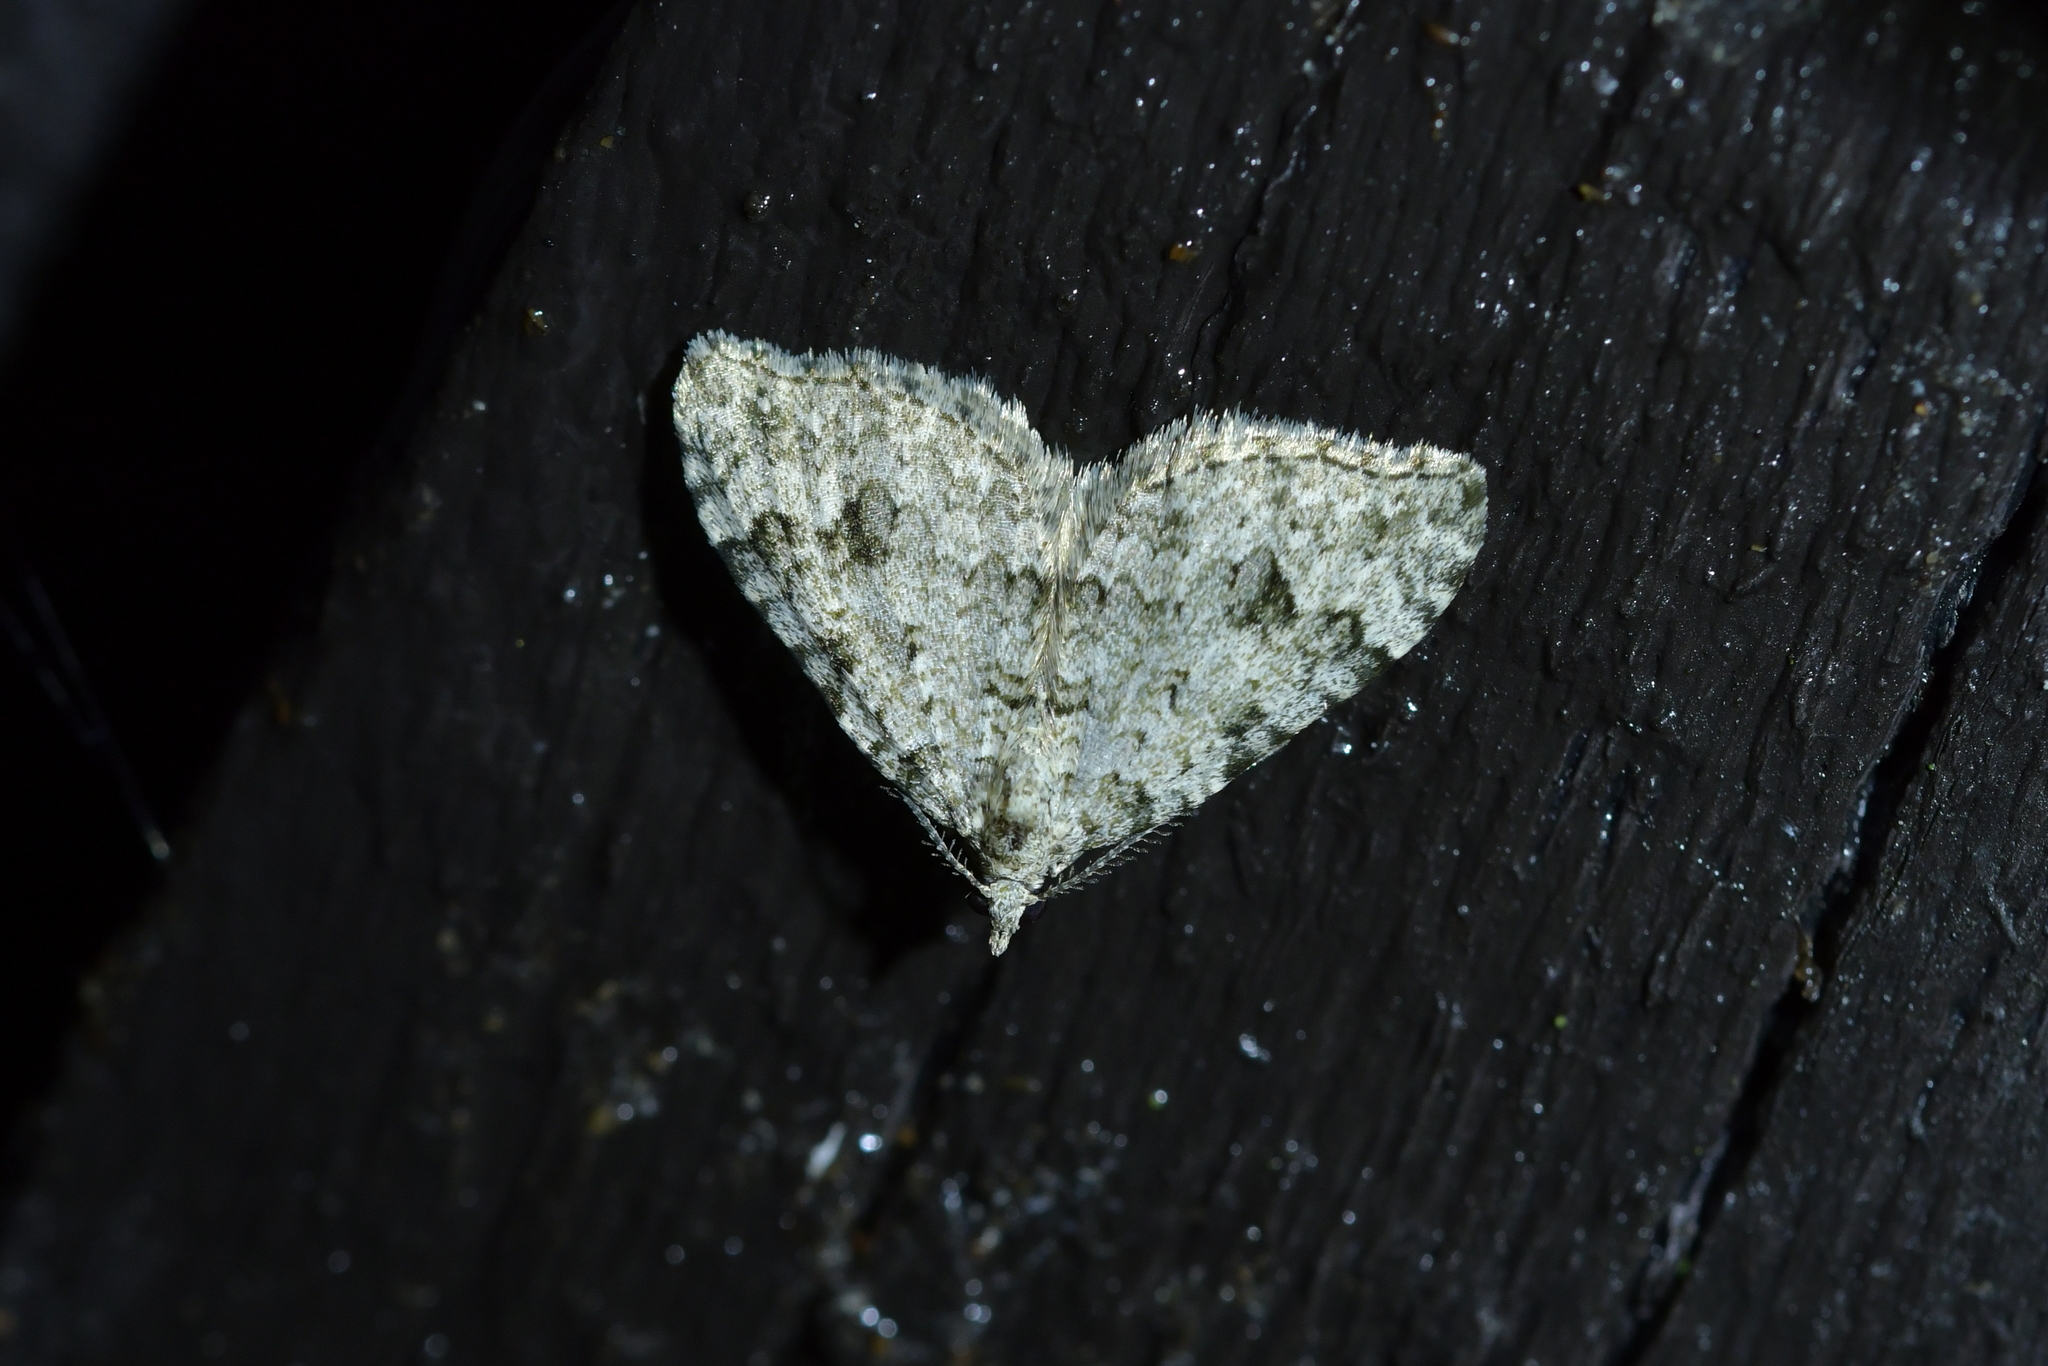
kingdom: Animalia
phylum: Arthropoda
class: Insecta
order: Lepidoptera
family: Geometridae
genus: Helastia
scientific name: Helastia cinerearia
